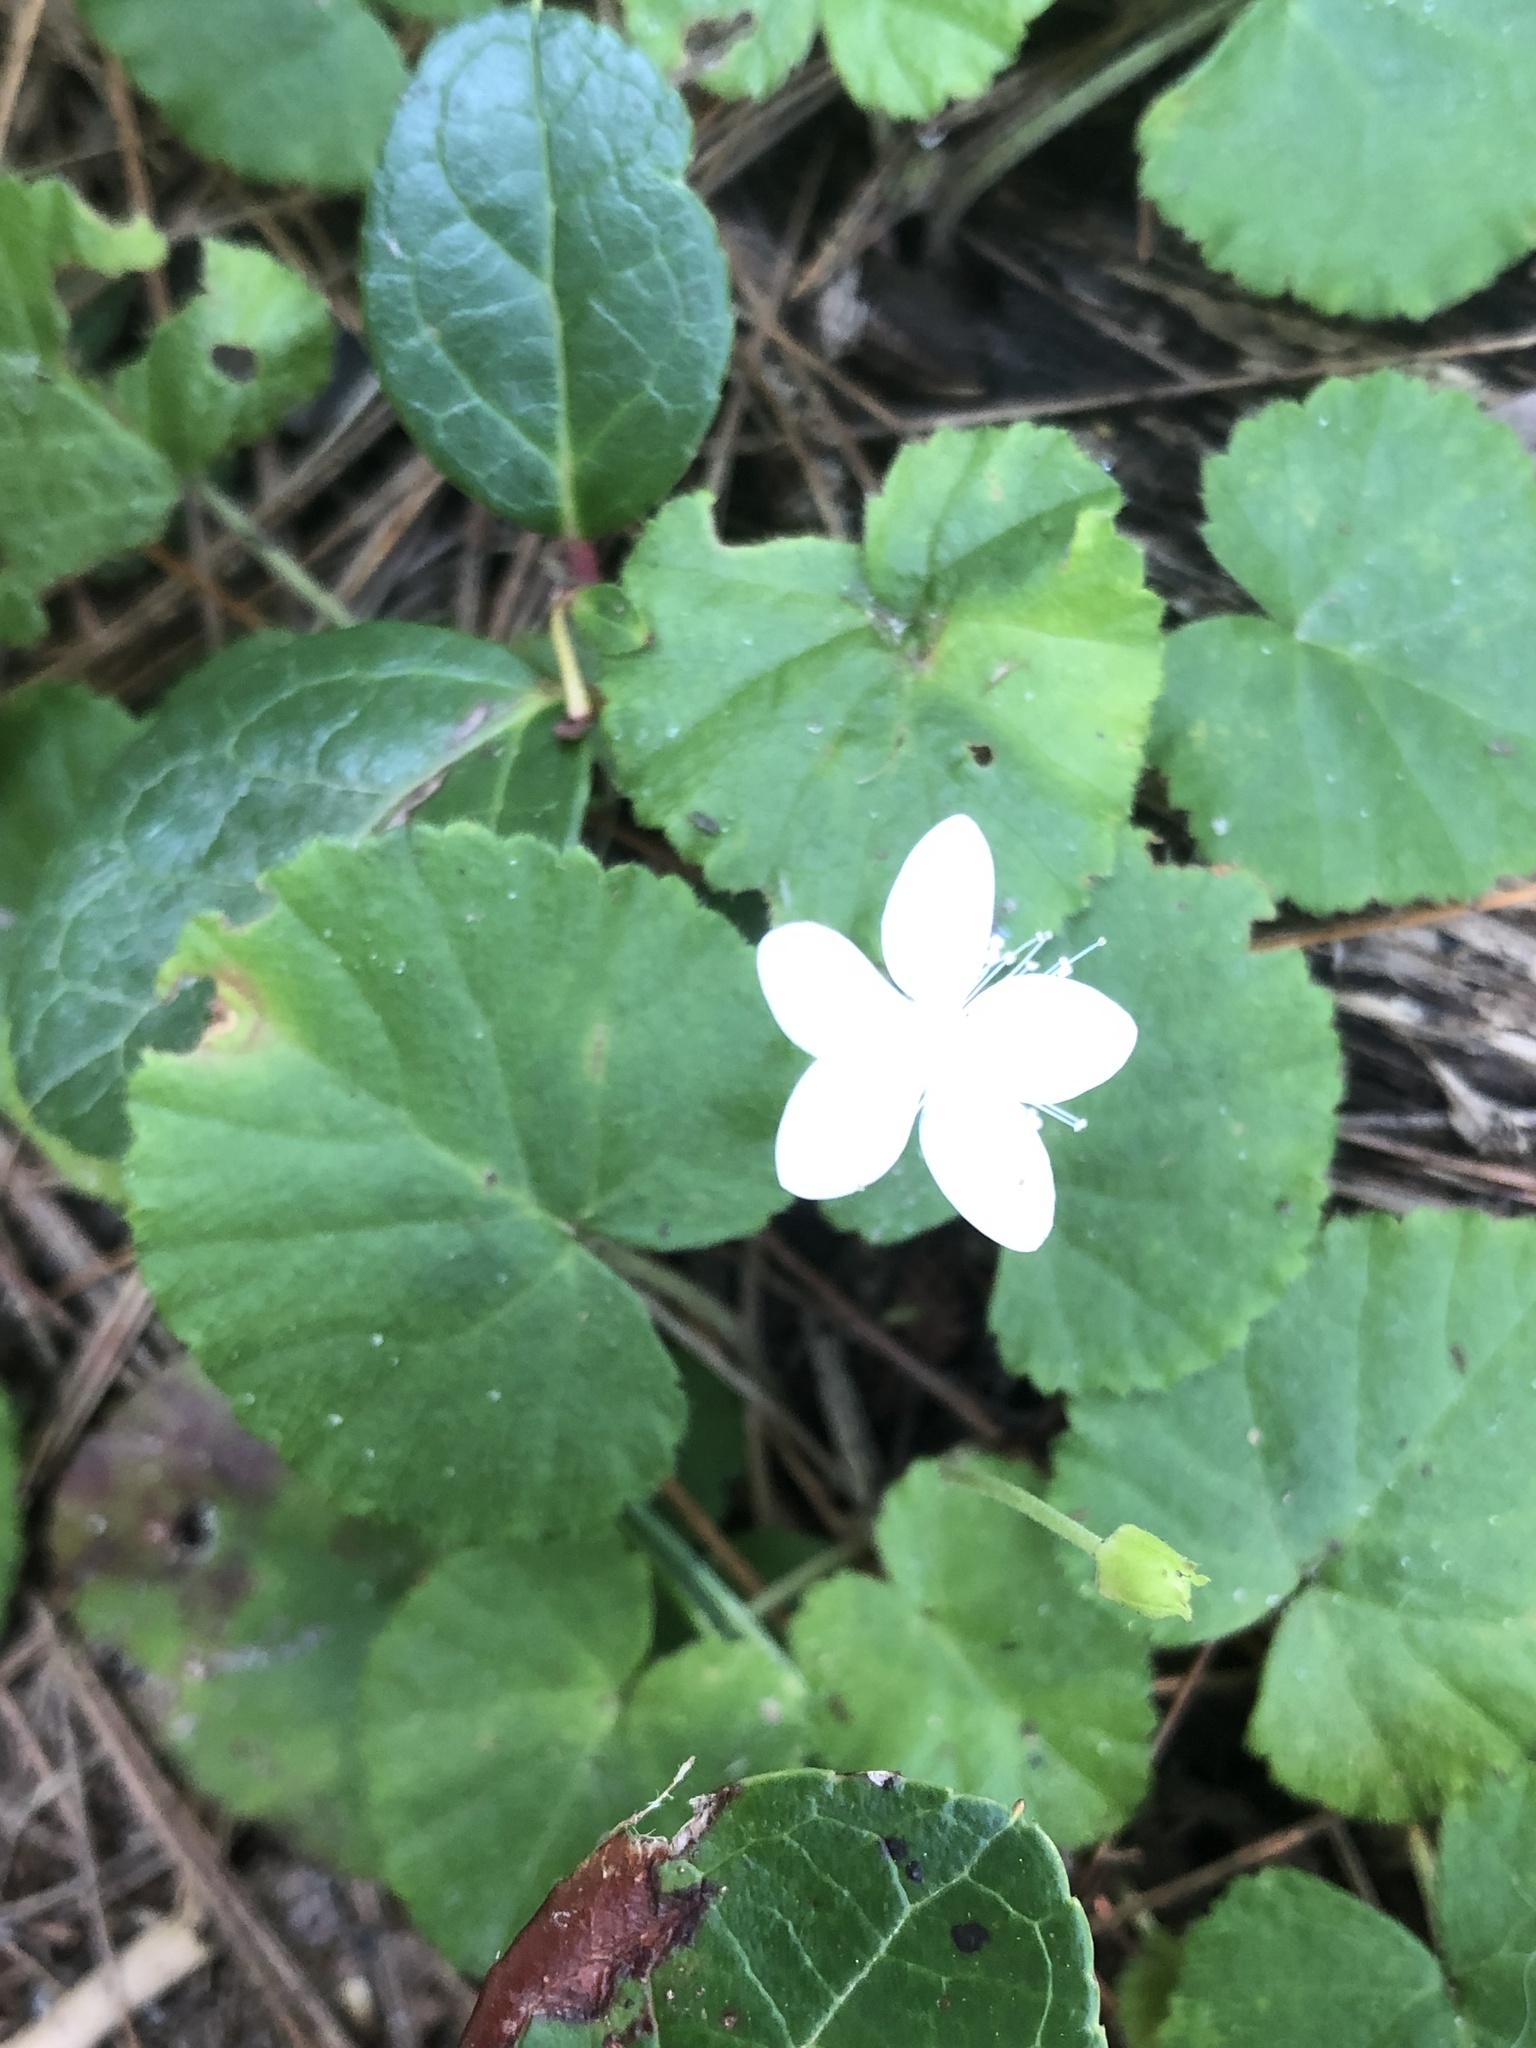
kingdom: Plantae
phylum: Tracheophyta
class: Magnoliopsida
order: Rosales
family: Rosaceae
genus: Dalibarda
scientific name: Dalibarda repens
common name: Dewdrop
